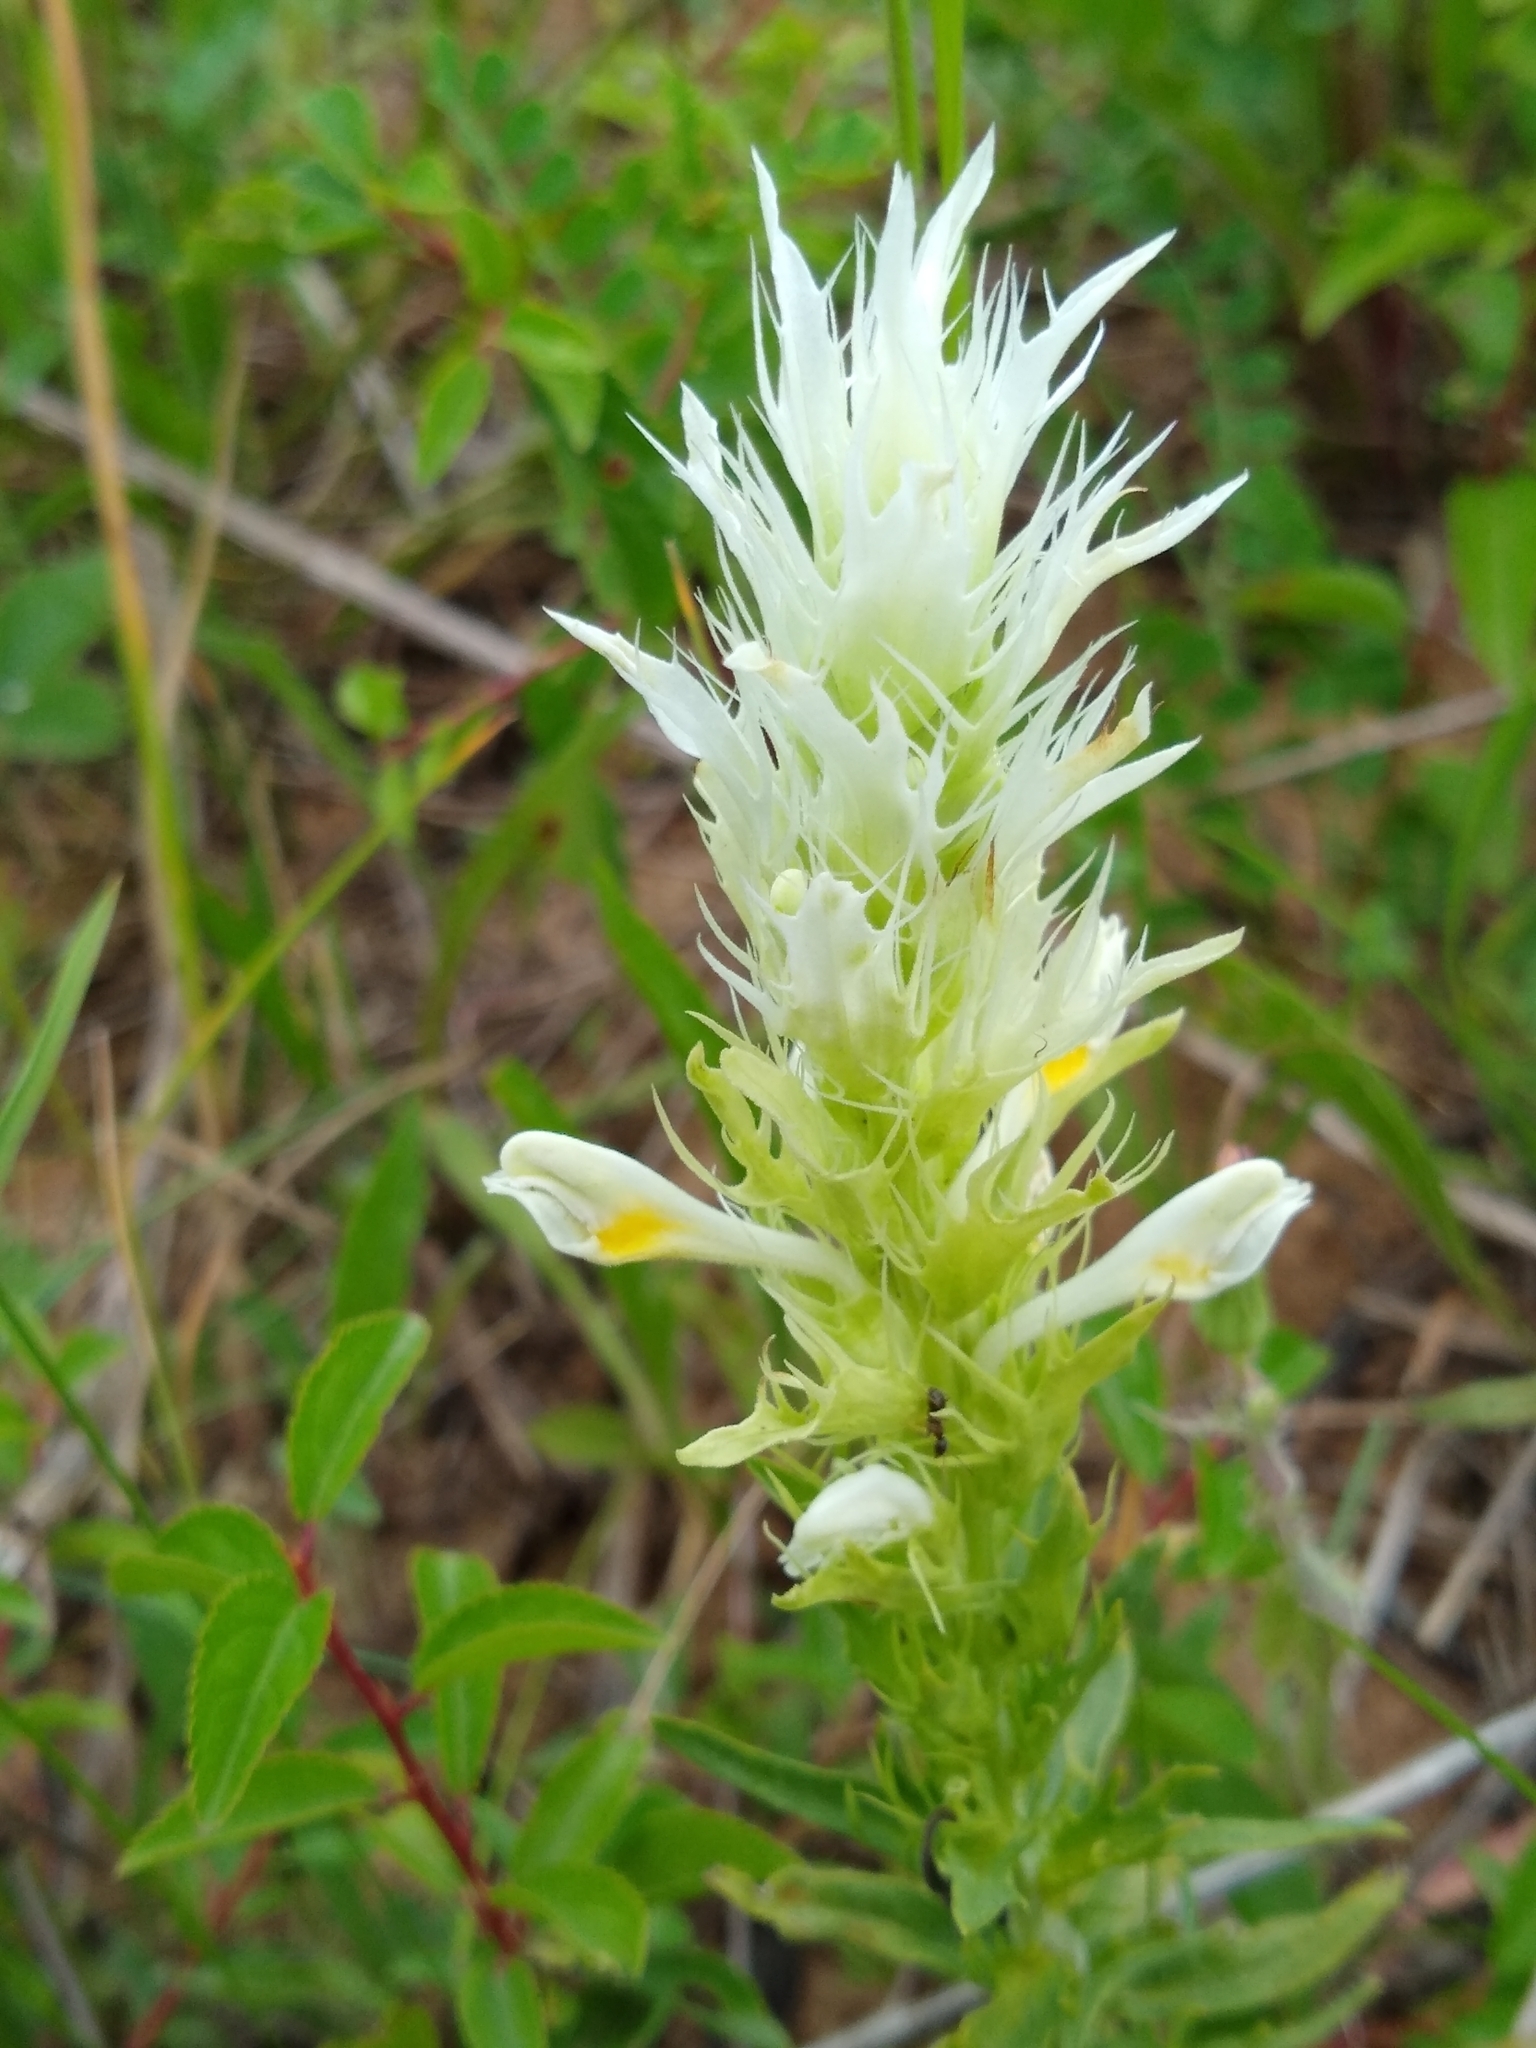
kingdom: Plantae
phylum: Tracheophyta
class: Magnoliopsida
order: Lamiales
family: Orobanchaceae
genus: Melampyrum
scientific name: Melampyrum arvense
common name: Field cow-wheat
